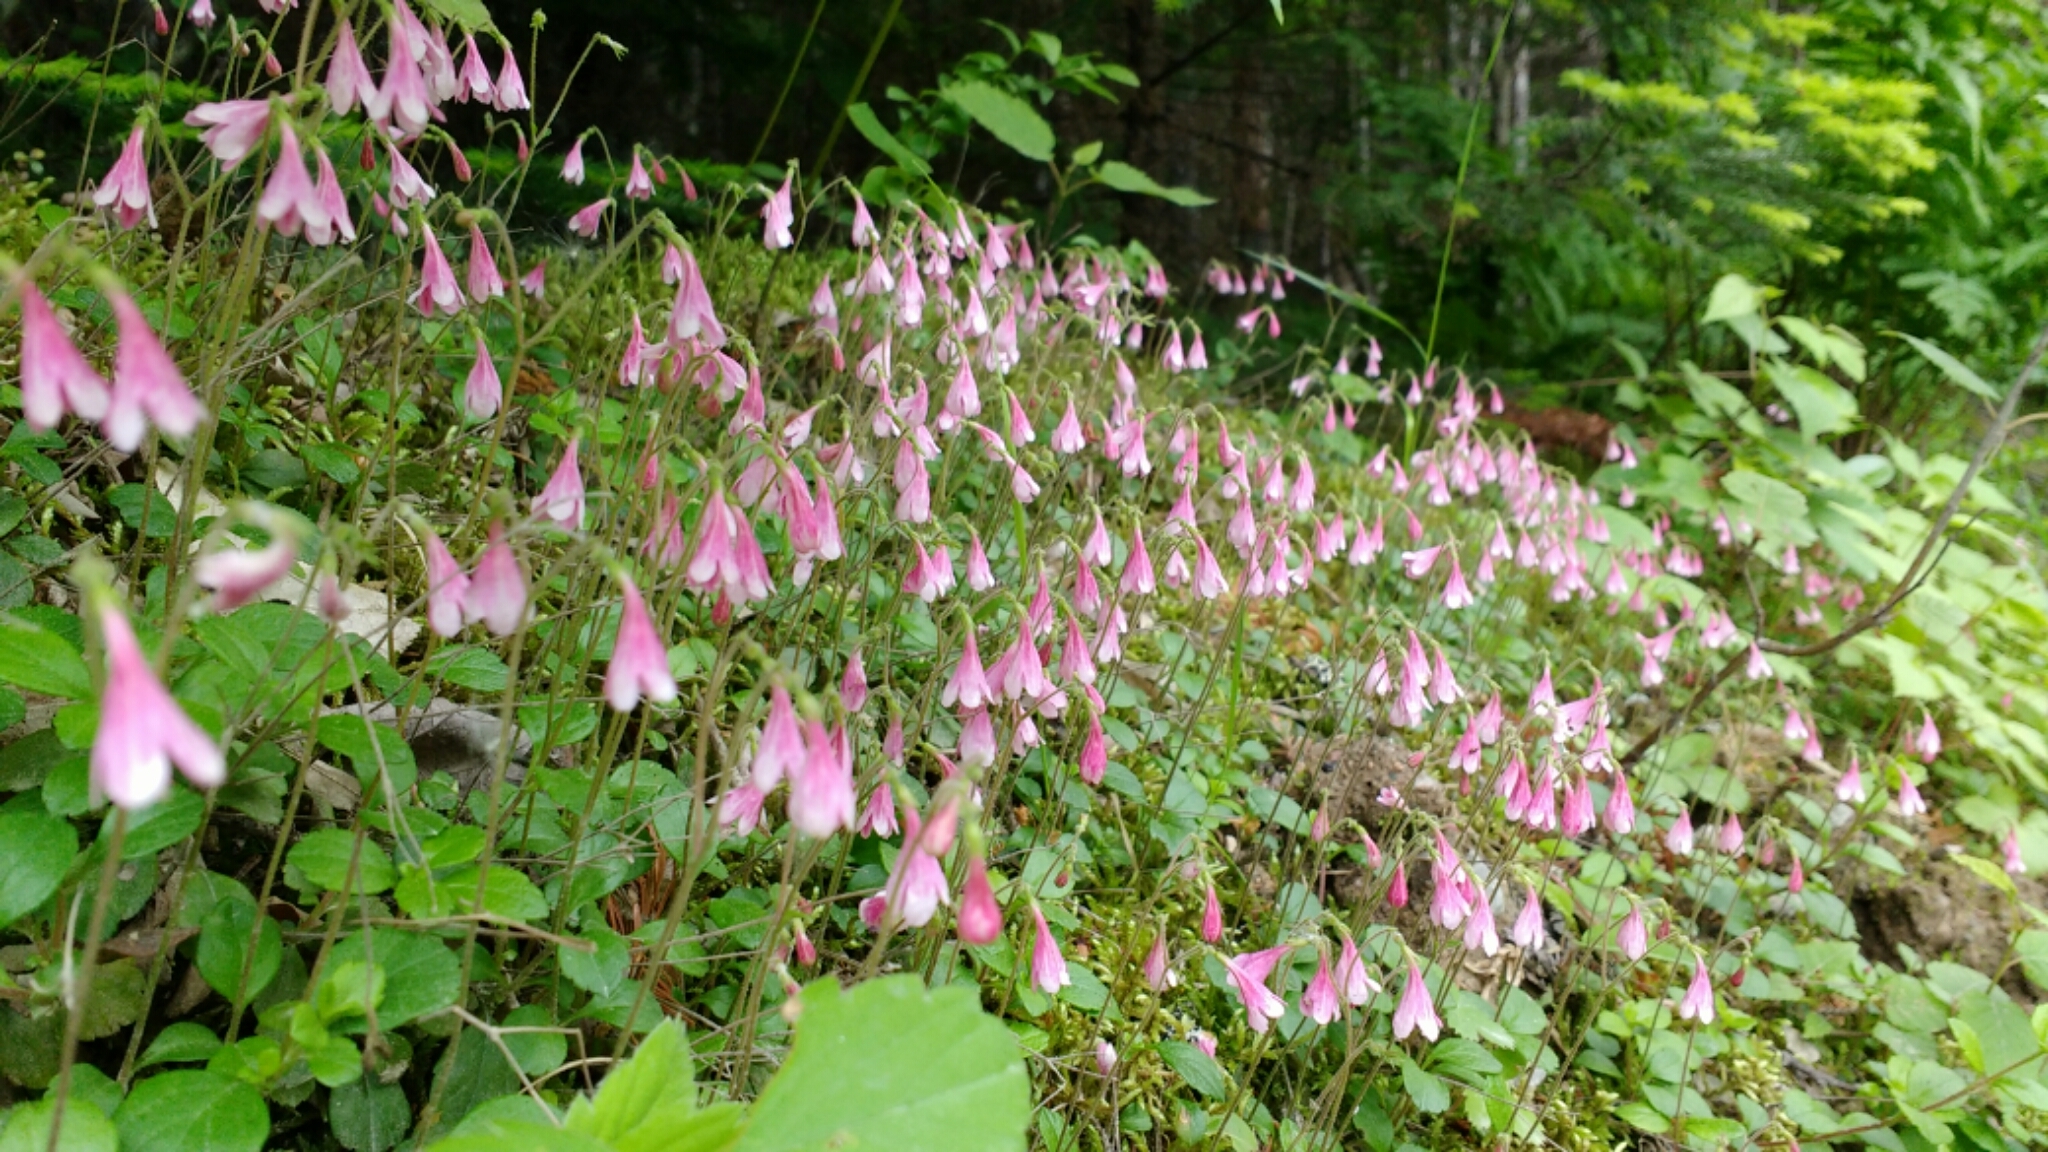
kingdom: Plantae
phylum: Tracheophyta
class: Magnoliopsida
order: Dipsacales
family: Caprifoliaceae
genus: Linnaea
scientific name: Linnaea borealis
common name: Twinflower
